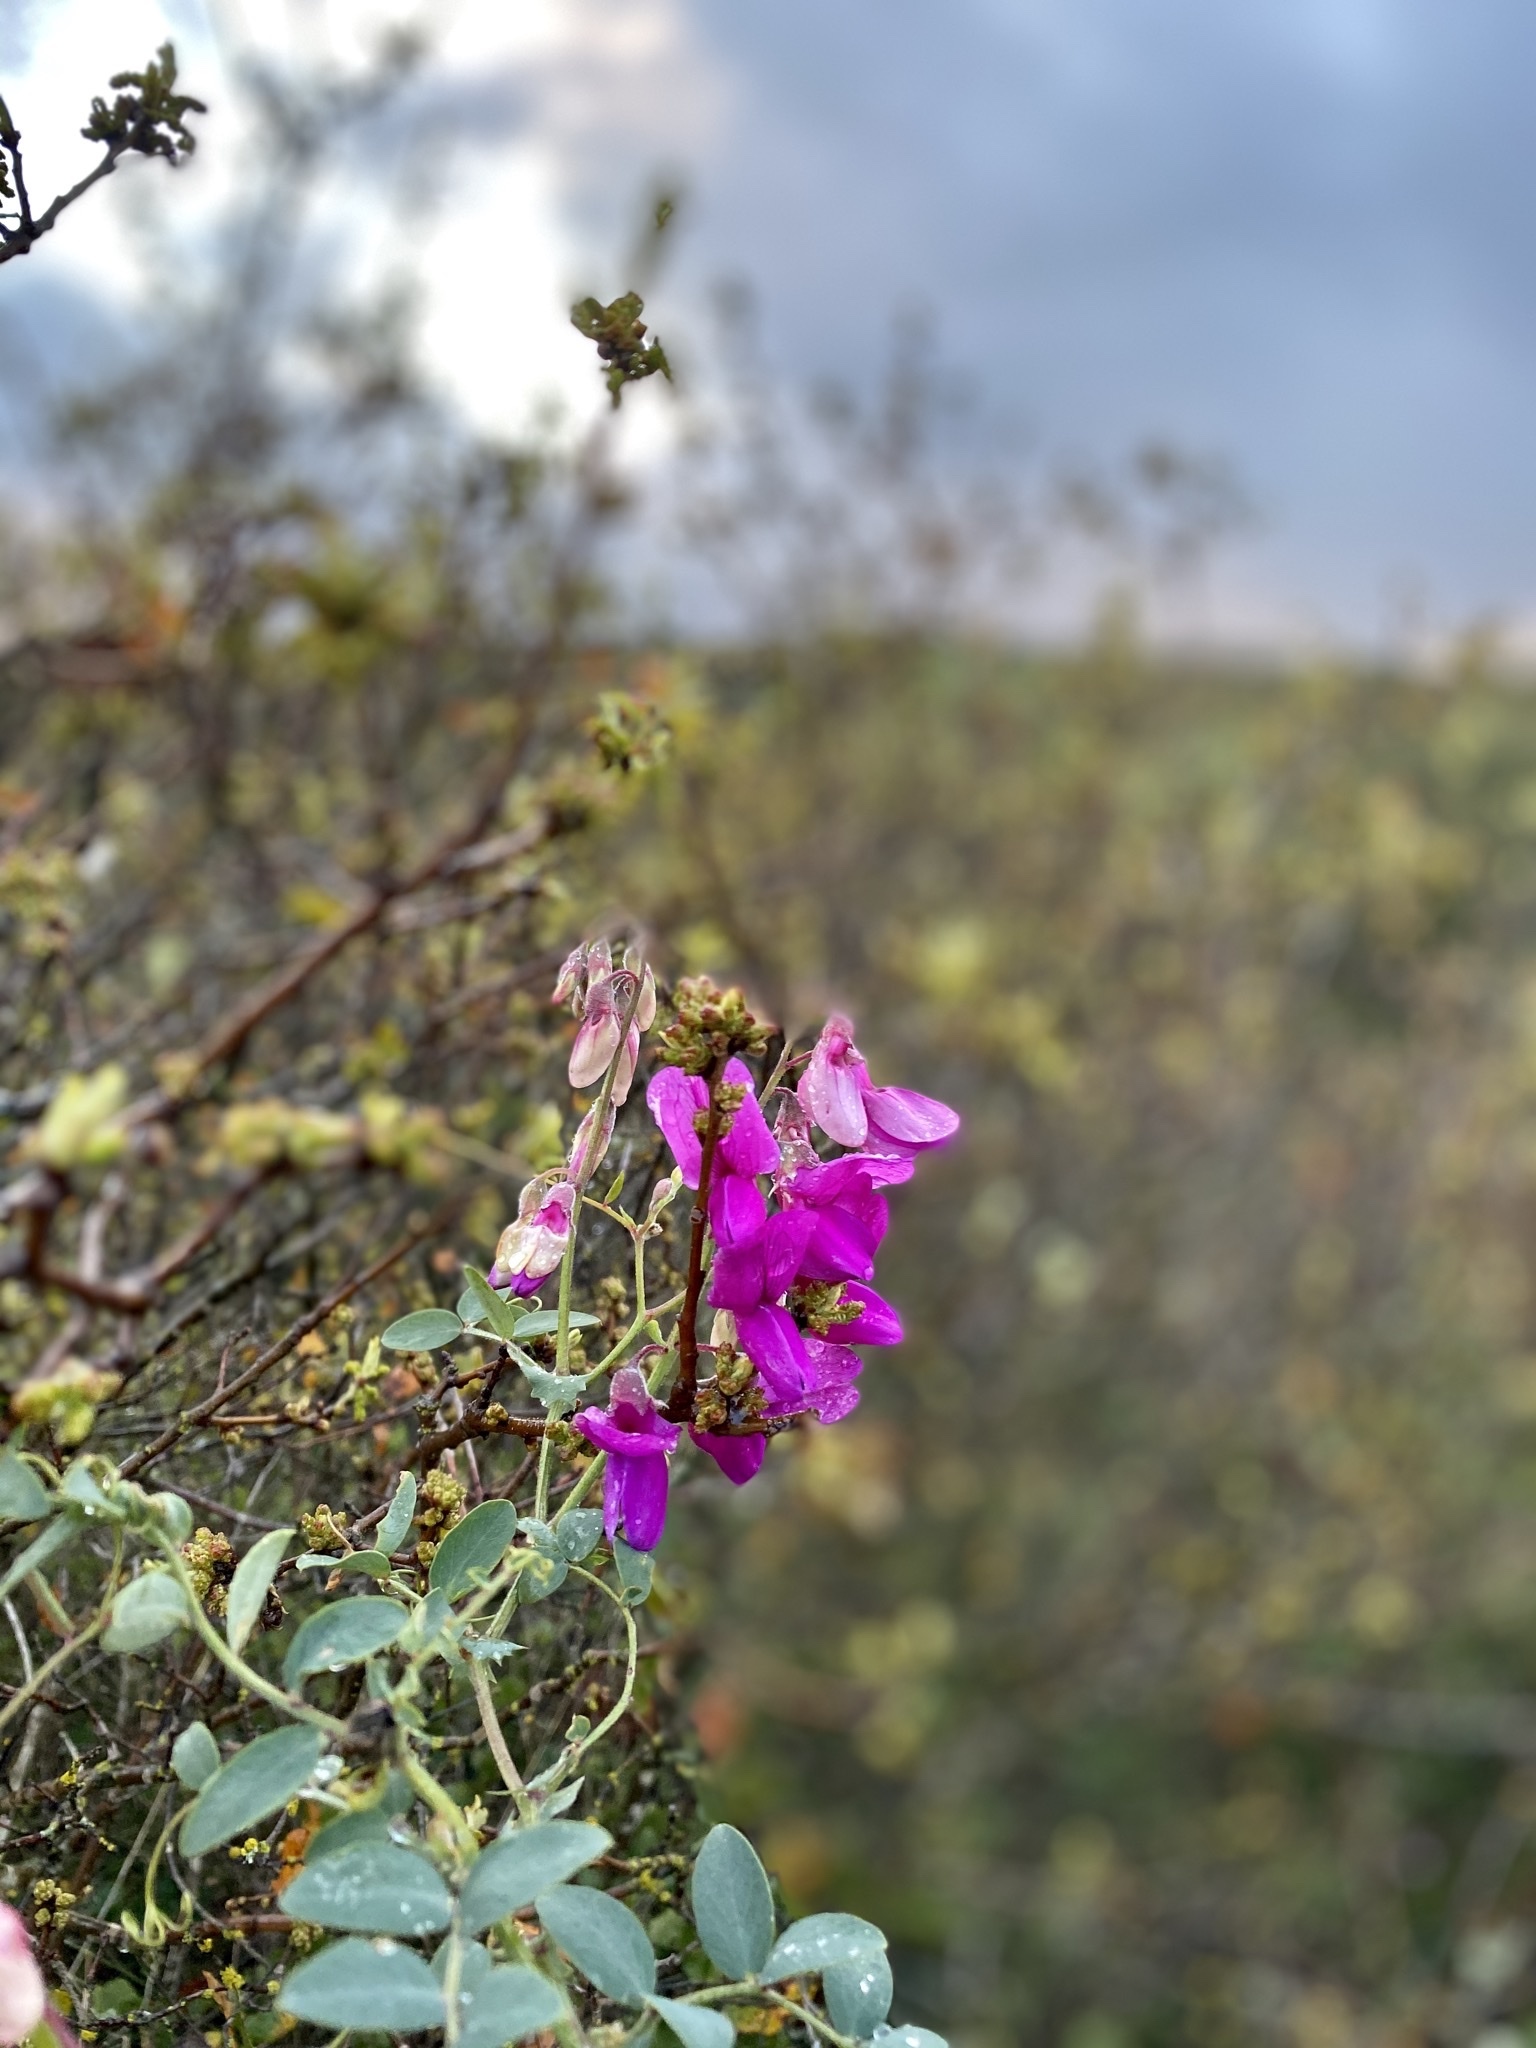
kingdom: Plantae
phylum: Tracheophyta
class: Magnoliopsida
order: Fabales
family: Fabaceae
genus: Lathyrus
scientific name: Lathyrus vestitus
